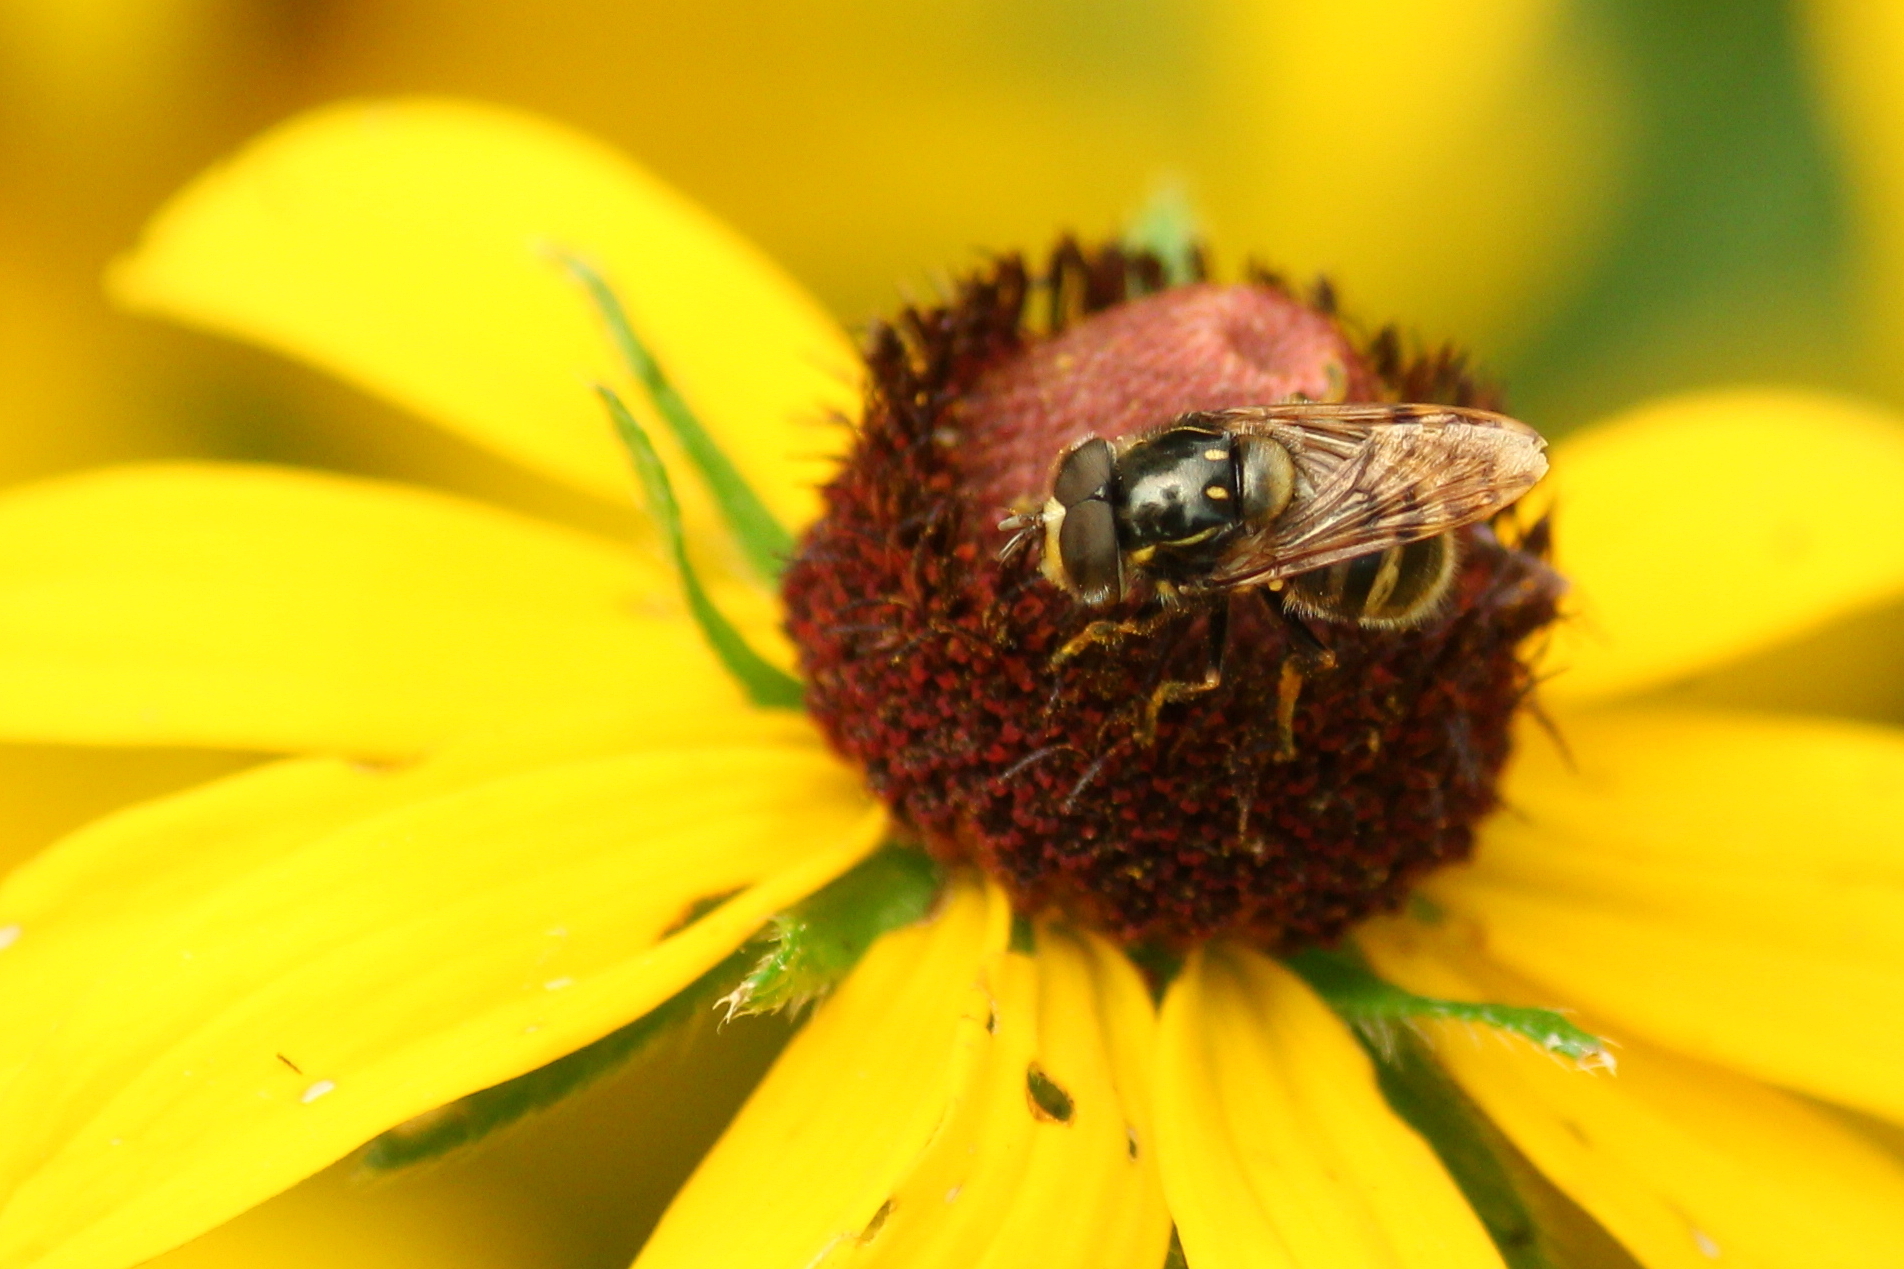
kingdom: Animalia
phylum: Arthropoda
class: Insecta
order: Diptera
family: Syrphidae
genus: Copestylum
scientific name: Copestylum vittatum
